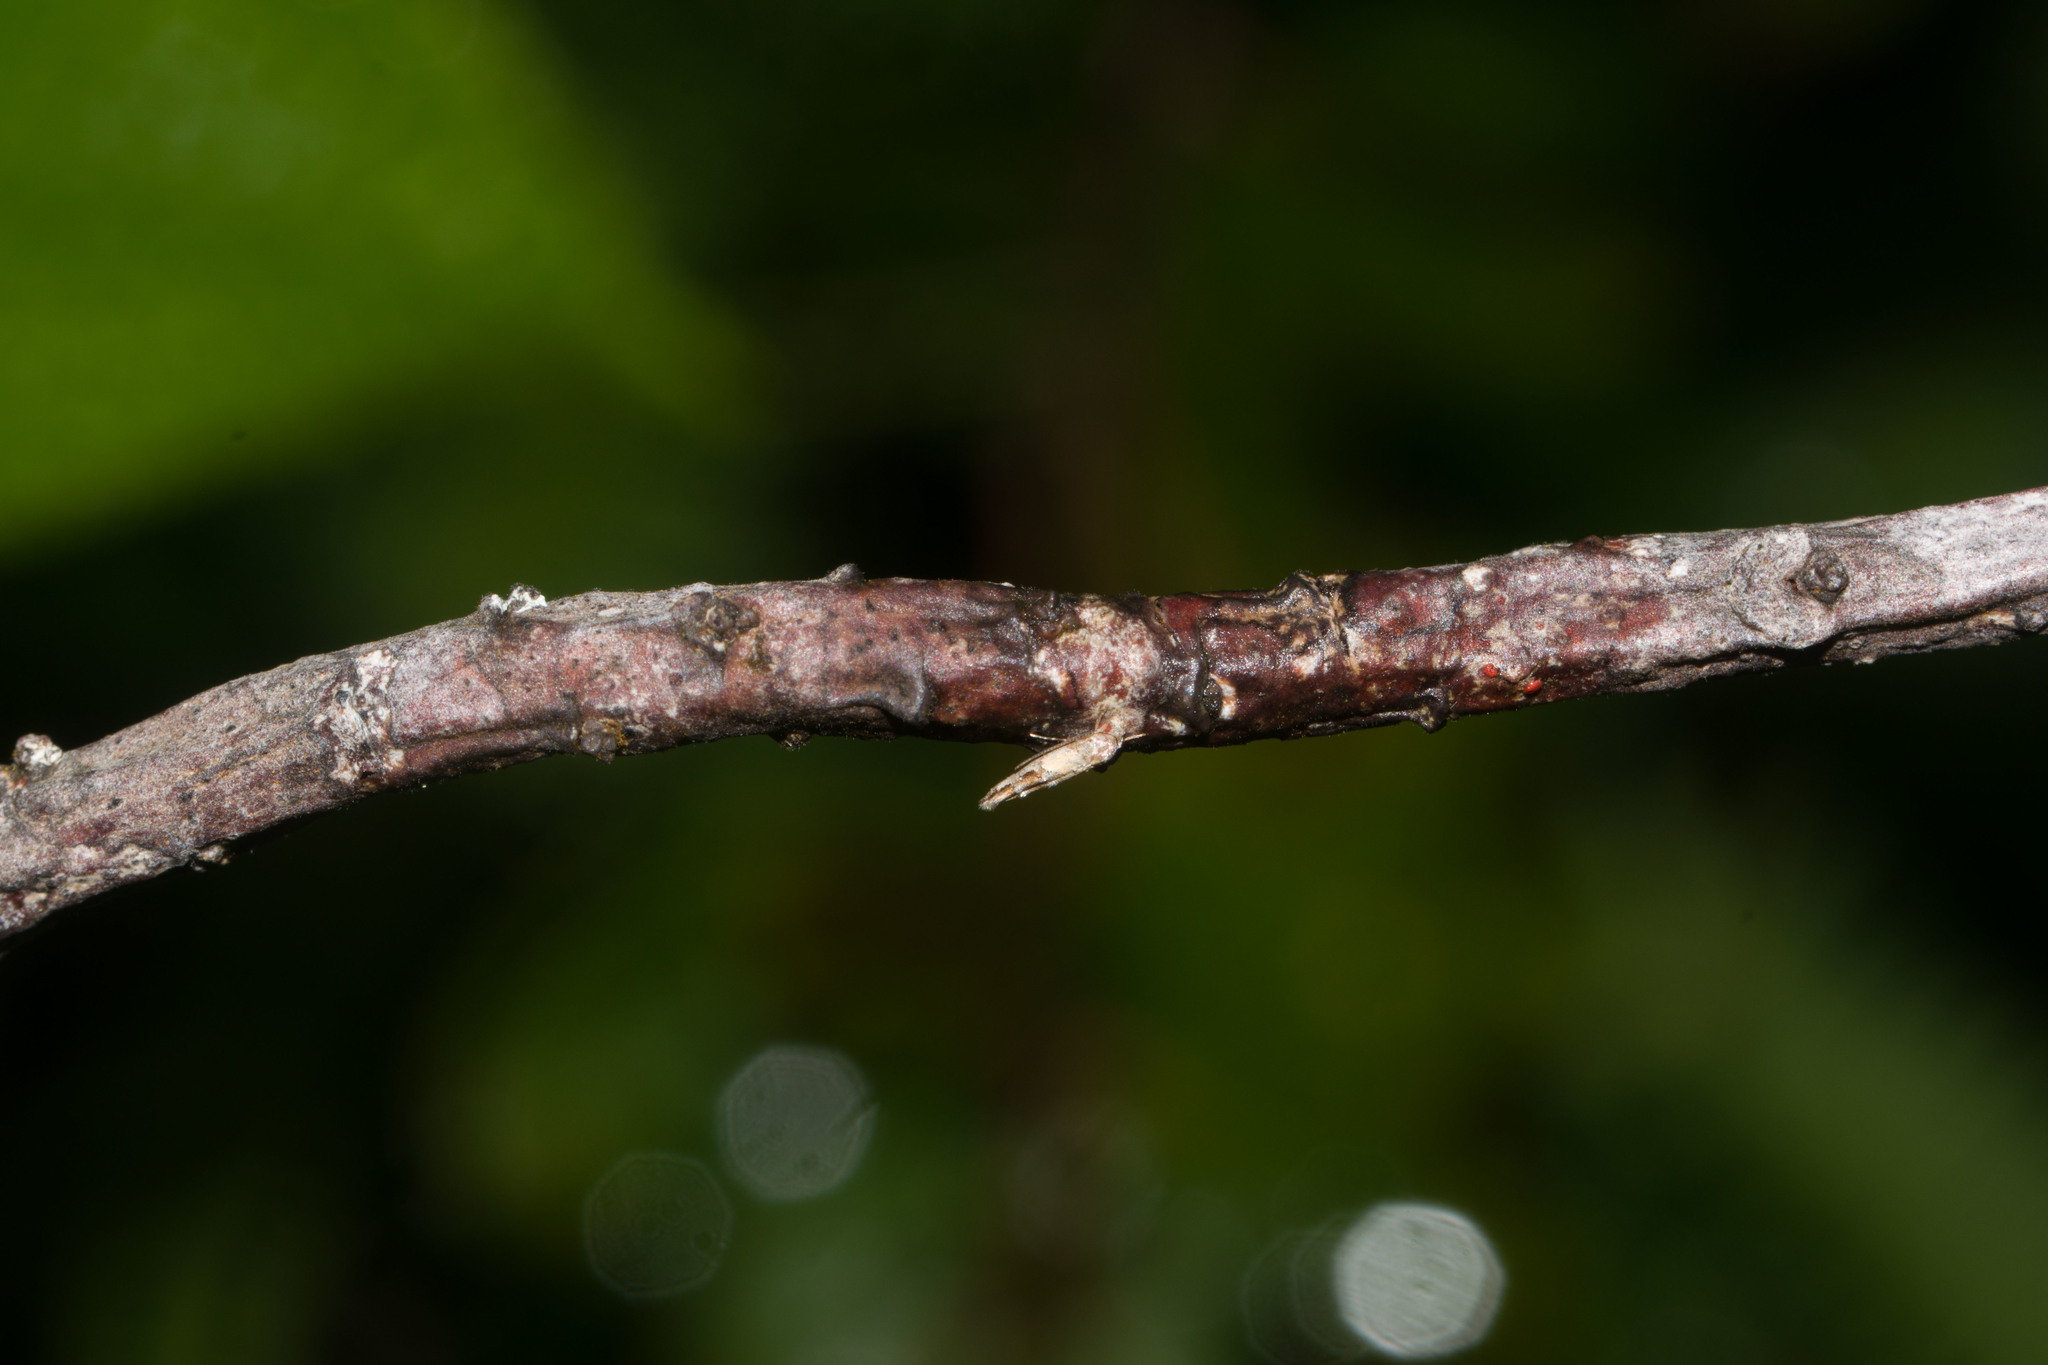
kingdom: Animalia
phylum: Arthropoda
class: Insecta
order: Lepidoptera
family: Momphidae
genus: Mompha
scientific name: Mompha trithalama
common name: Moth
